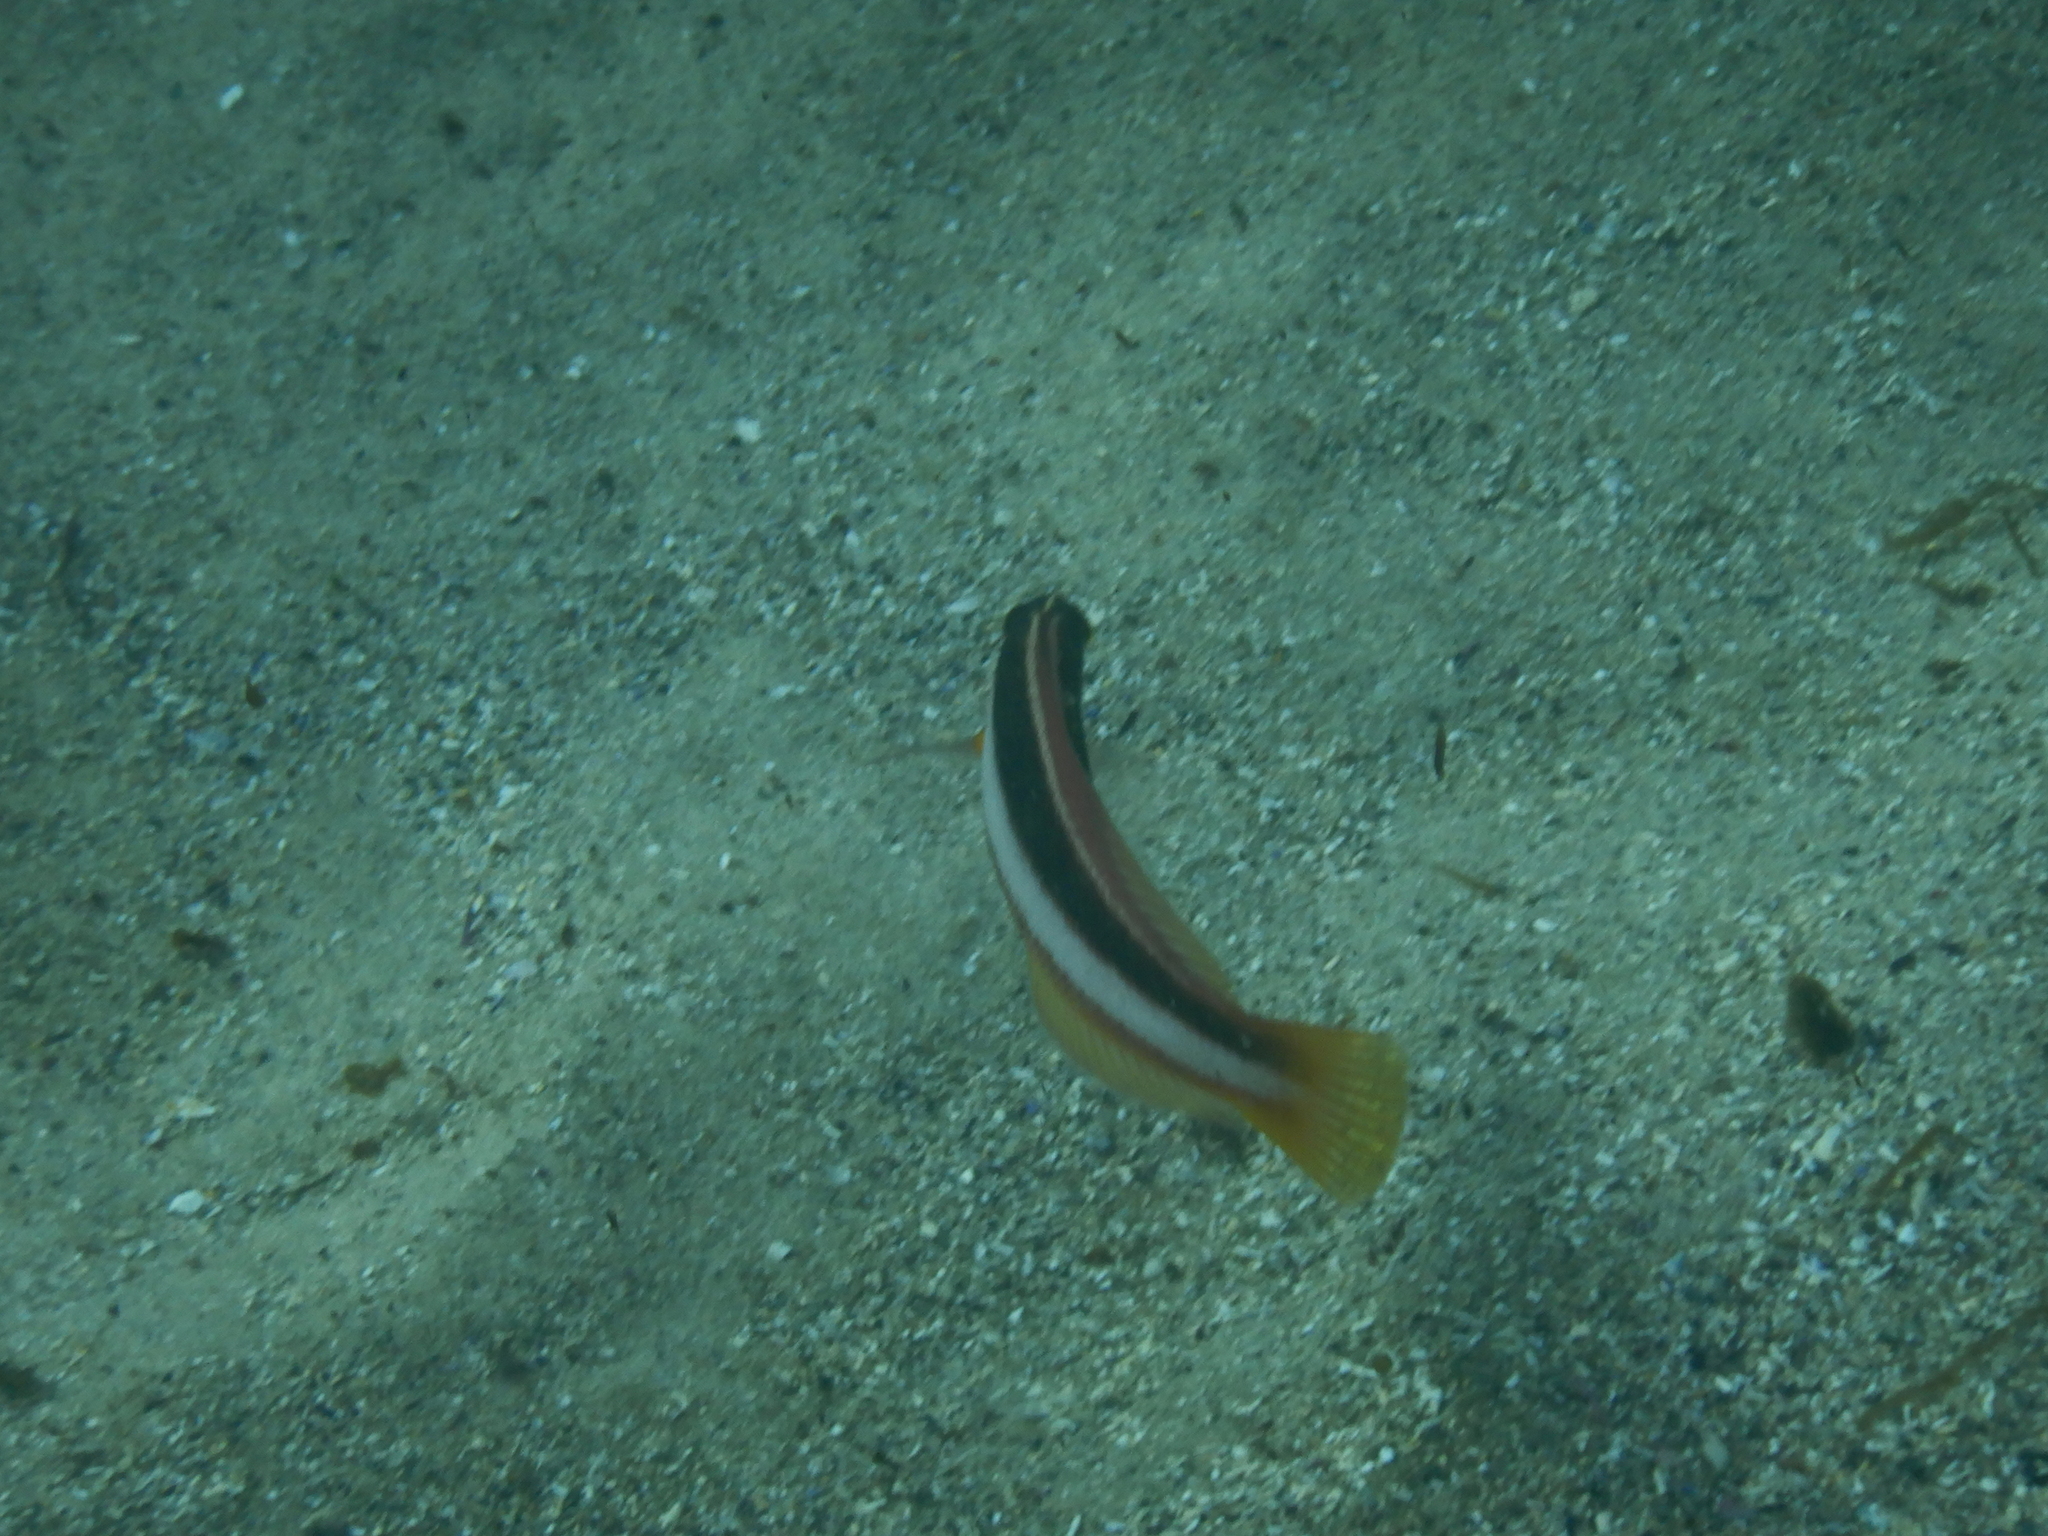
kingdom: Animalia
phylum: Chordata
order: Perciformes
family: Labridae
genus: Ophthalmolepis
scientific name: Ophthalmolepis lineolata
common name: Maori wrasse
